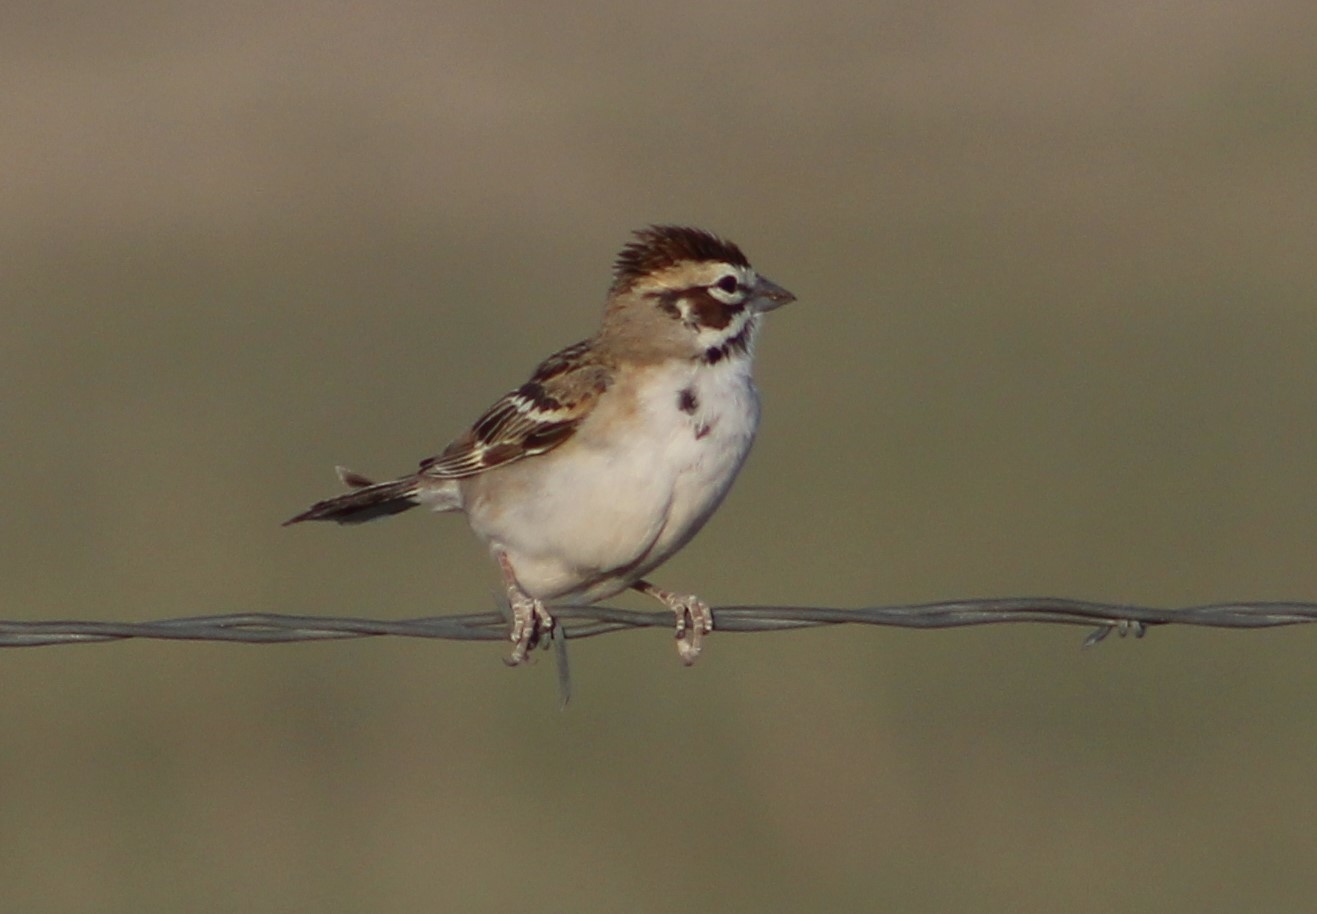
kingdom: Animalia
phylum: Chordata
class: Aves
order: Passeriformes
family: Passerellidae
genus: Chondestes
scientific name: Chondestes grammacus
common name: Lark sparrow
